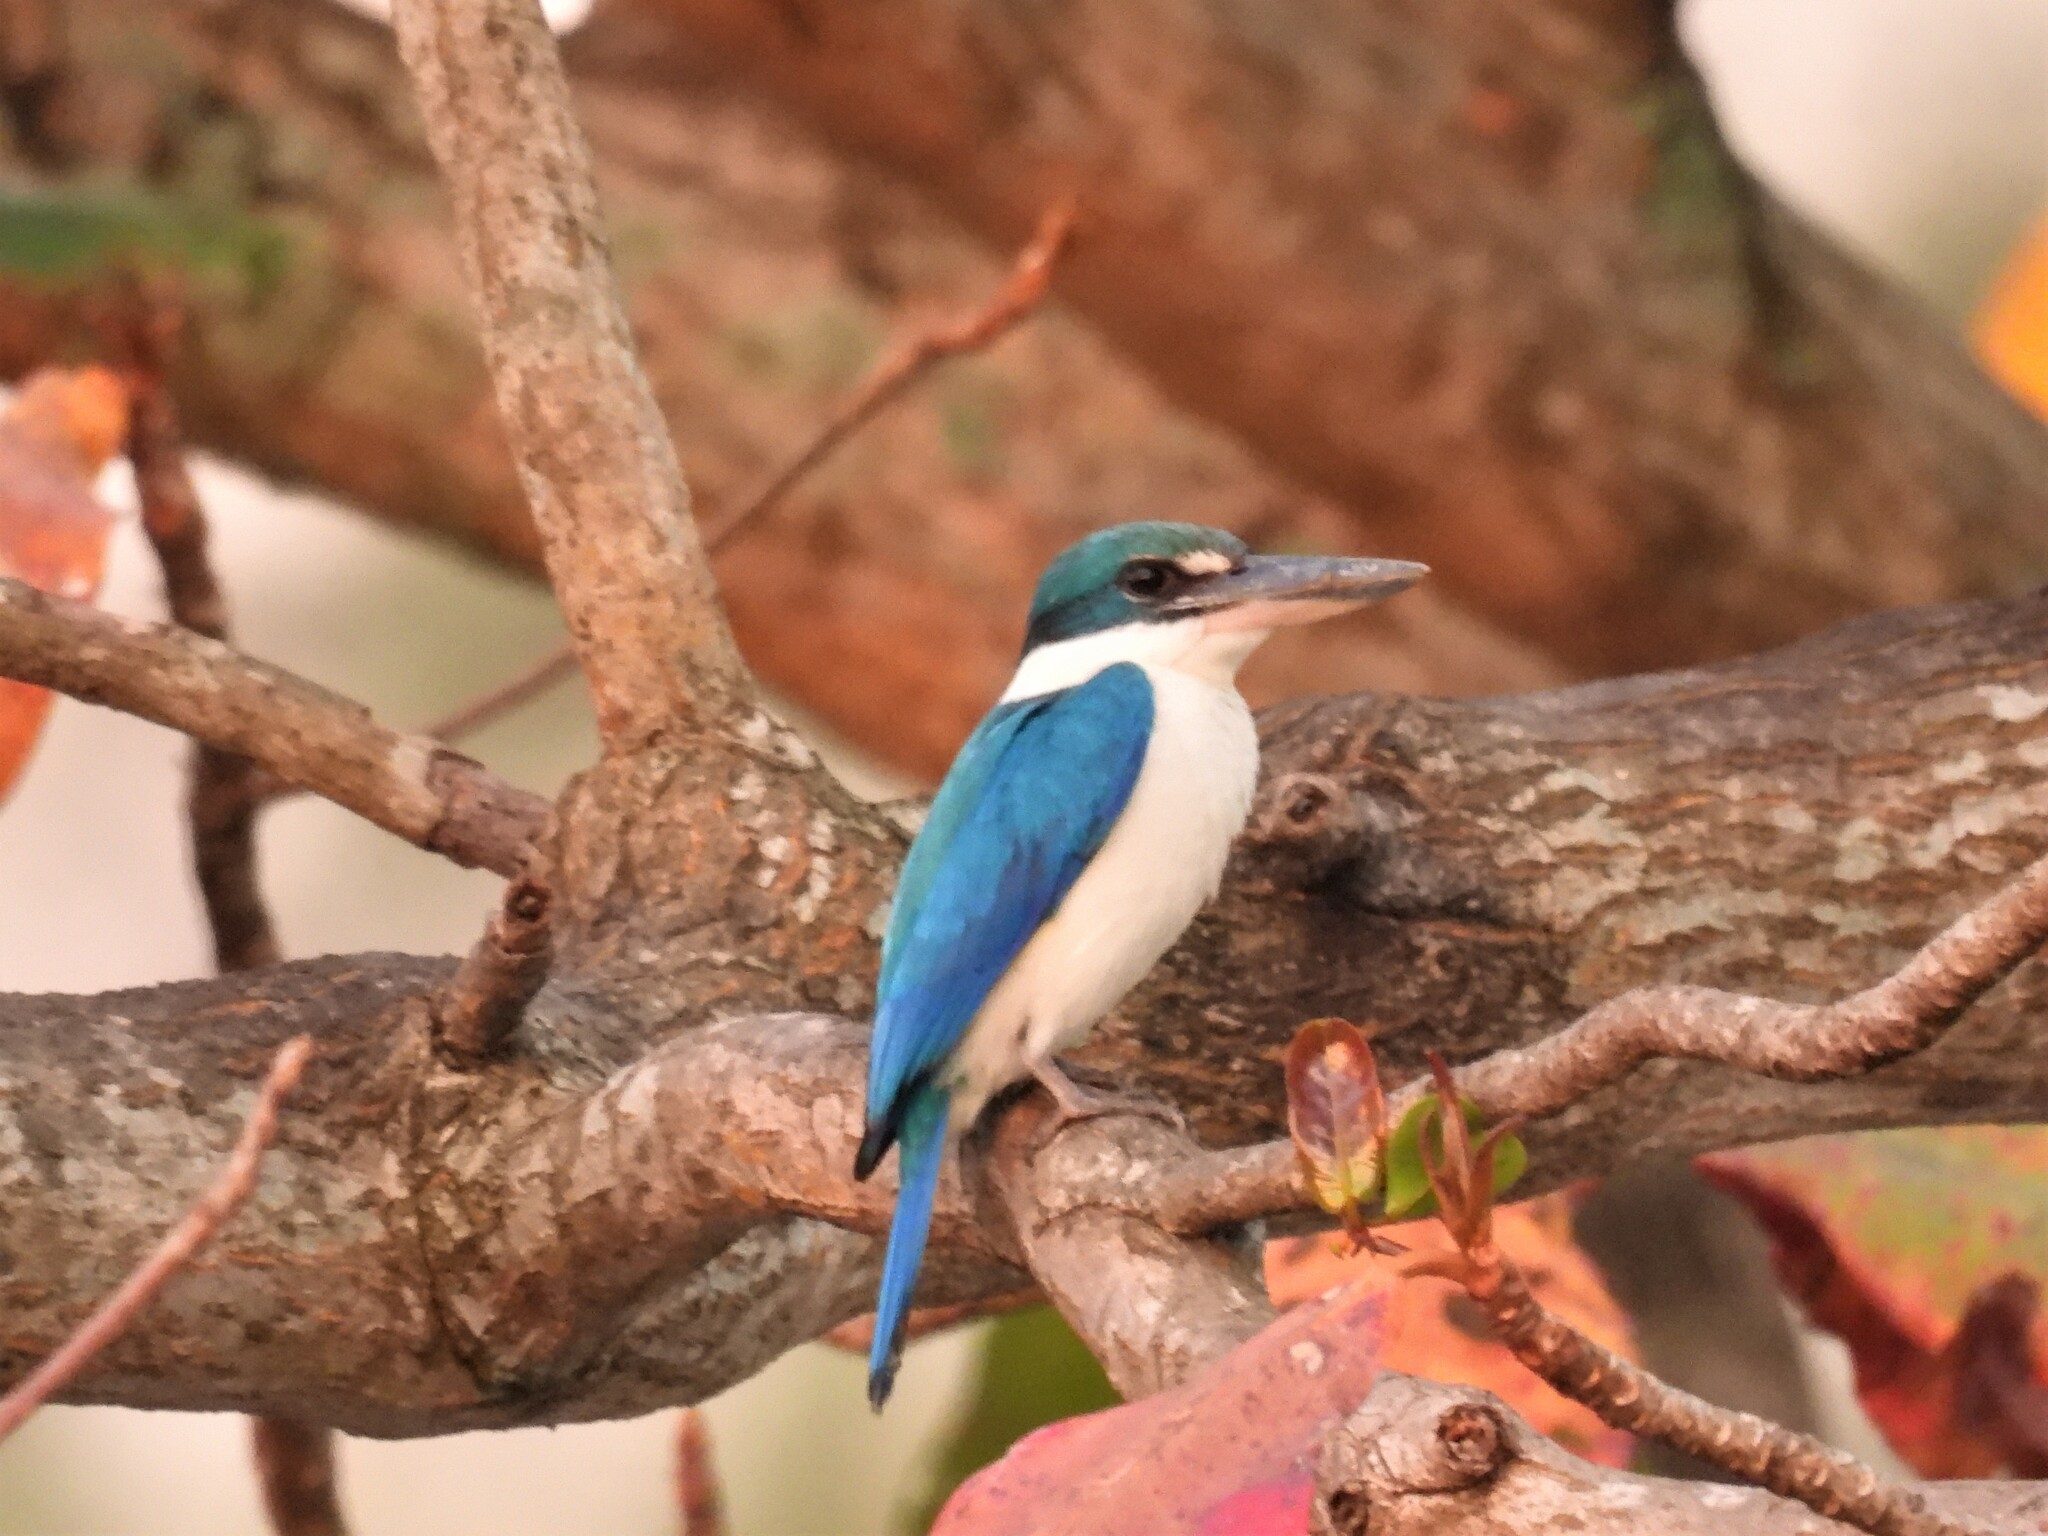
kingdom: Animalia
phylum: Chordata
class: Aves
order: Coraciiformes
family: Alcedinidae
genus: Todiramphus
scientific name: Todiramphus chloris
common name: Collared kingfisher
